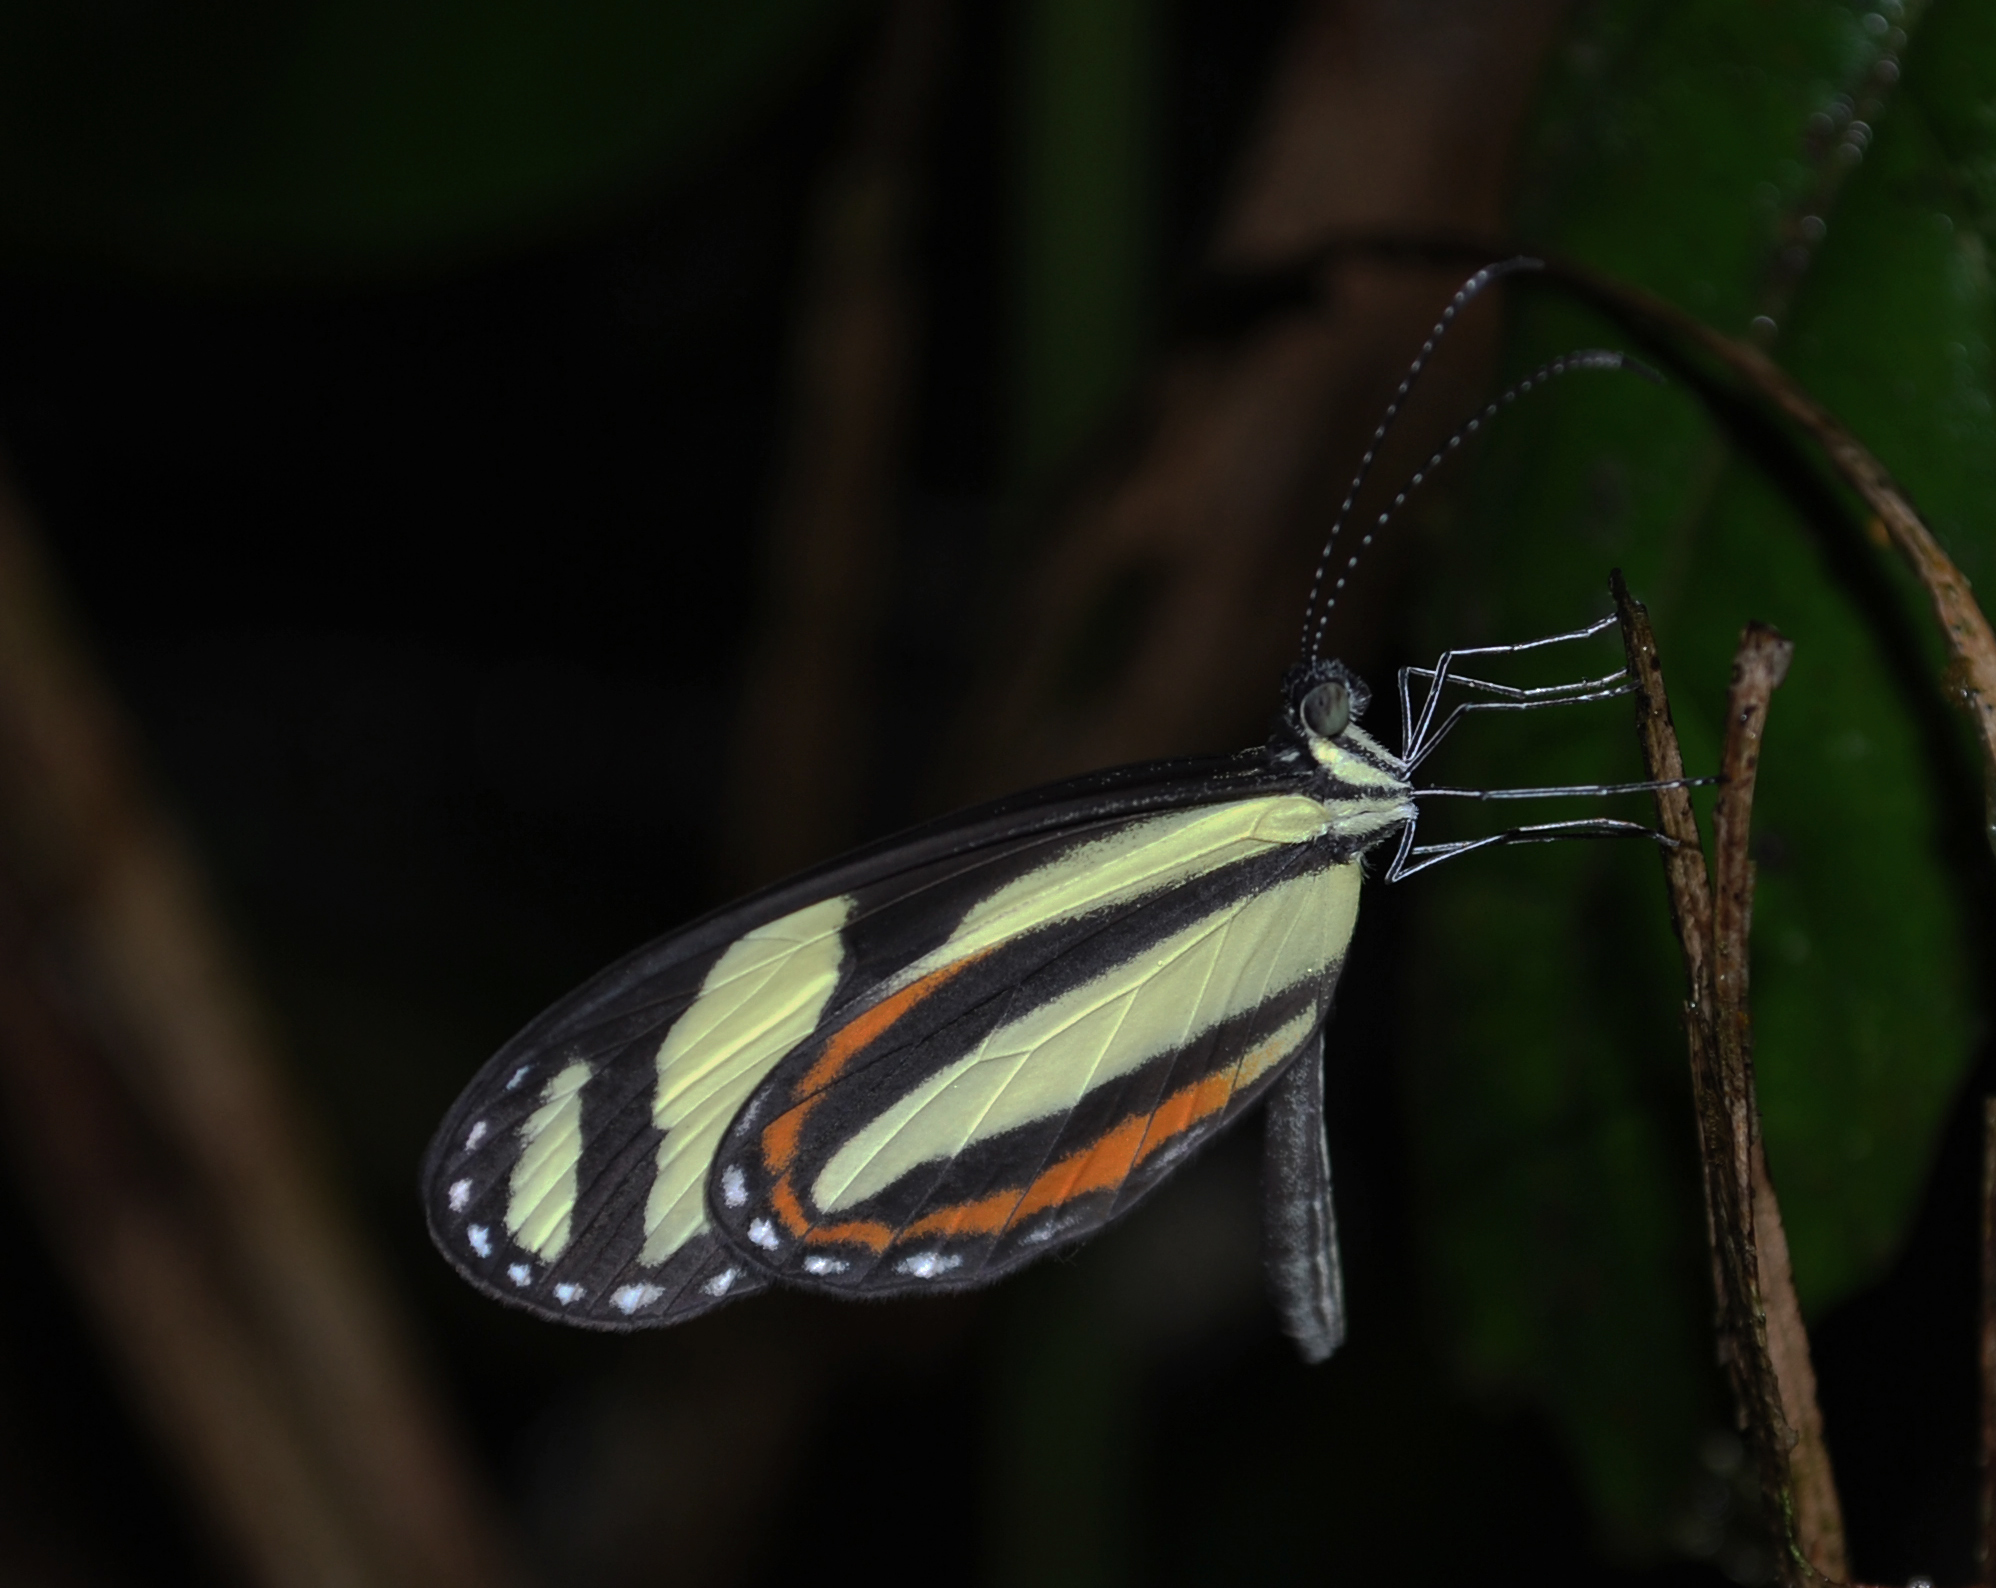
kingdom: Animalia
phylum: Arthropoda
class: Insecta
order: Lepidoptera
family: Pieridae
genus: Moschoneura
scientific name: Moschoneura
